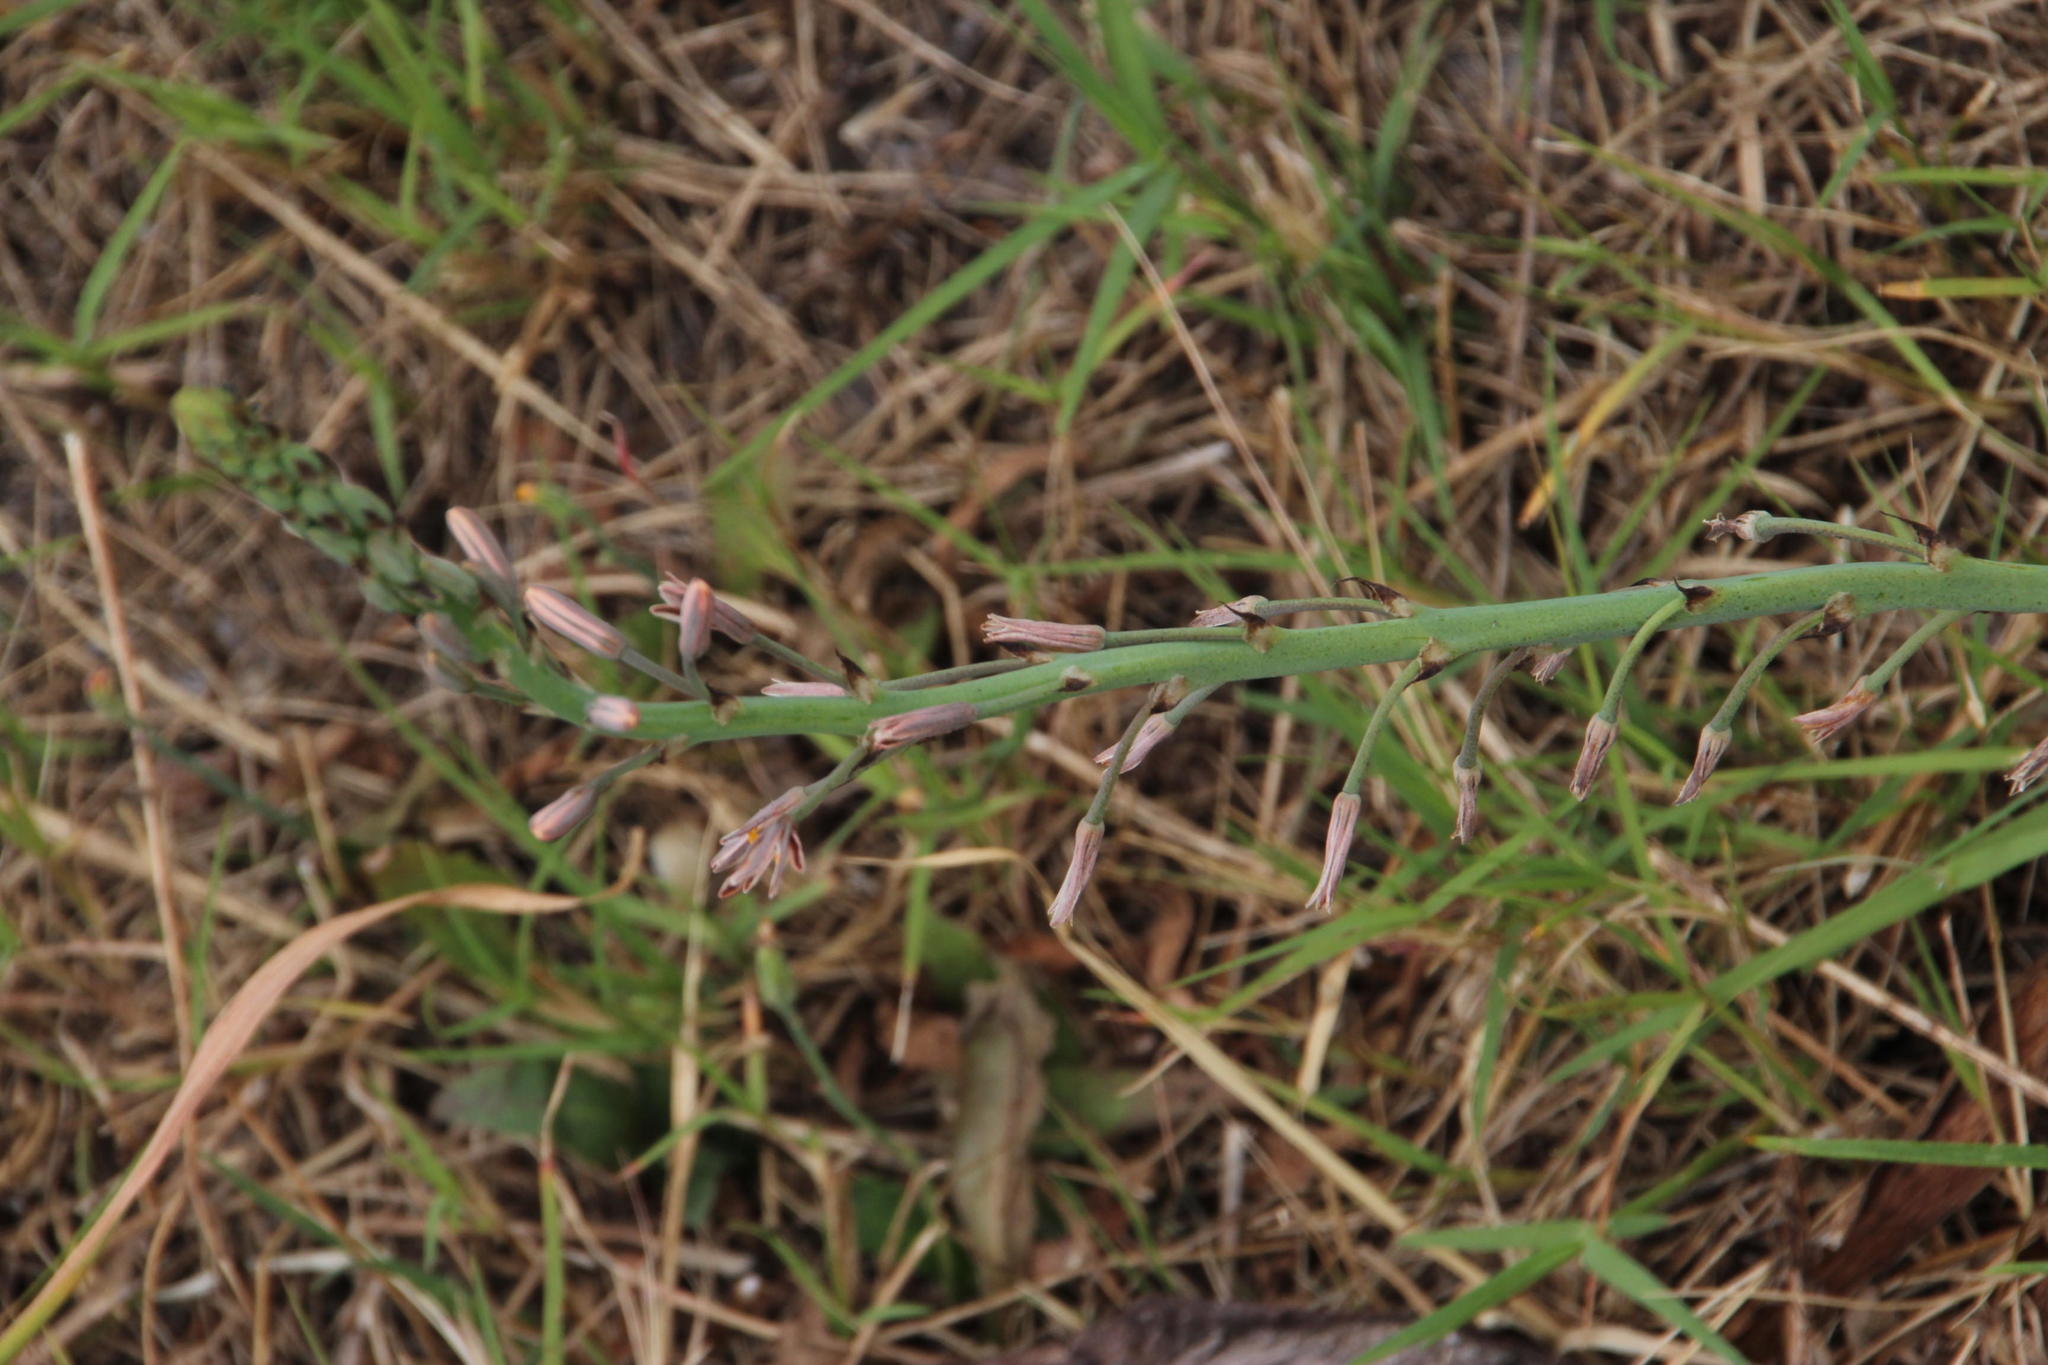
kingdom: Plantae
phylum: Tracheophyta
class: Liliopsida
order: Asparagales
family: Asphodelaceae
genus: Trachyandra
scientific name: Trachyandra ciliata
